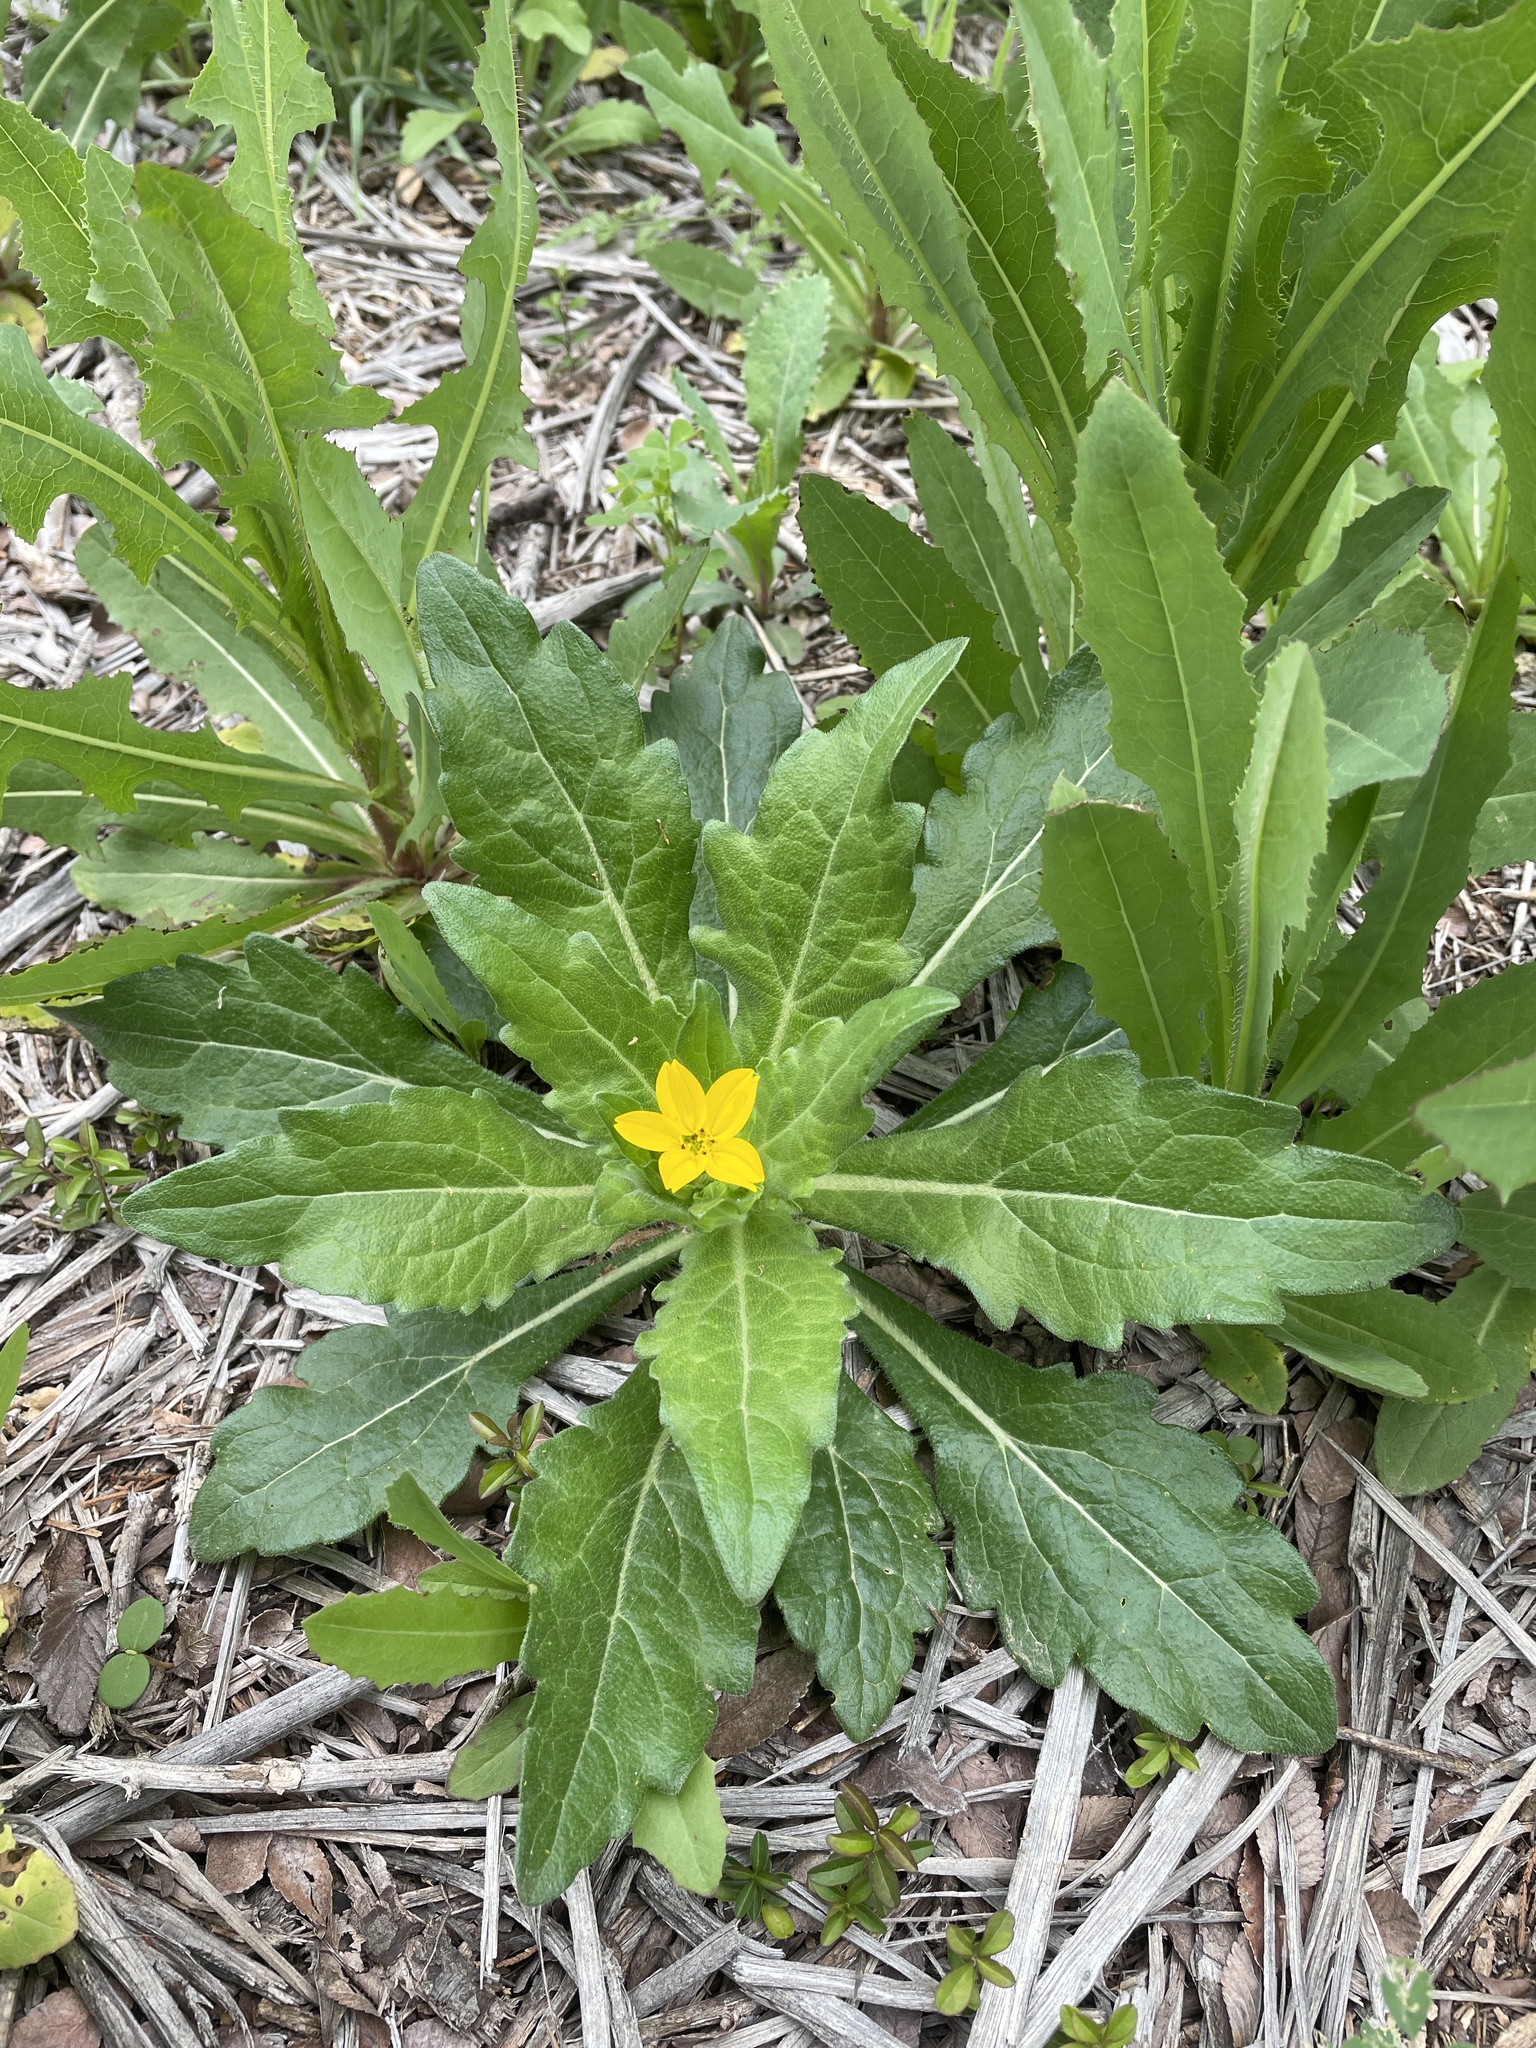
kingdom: Plantae
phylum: Tracheophyta
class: Magnoliopsida
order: Asterales
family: Asteraceae
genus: Lindheimera
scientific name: Lindheimera texana
